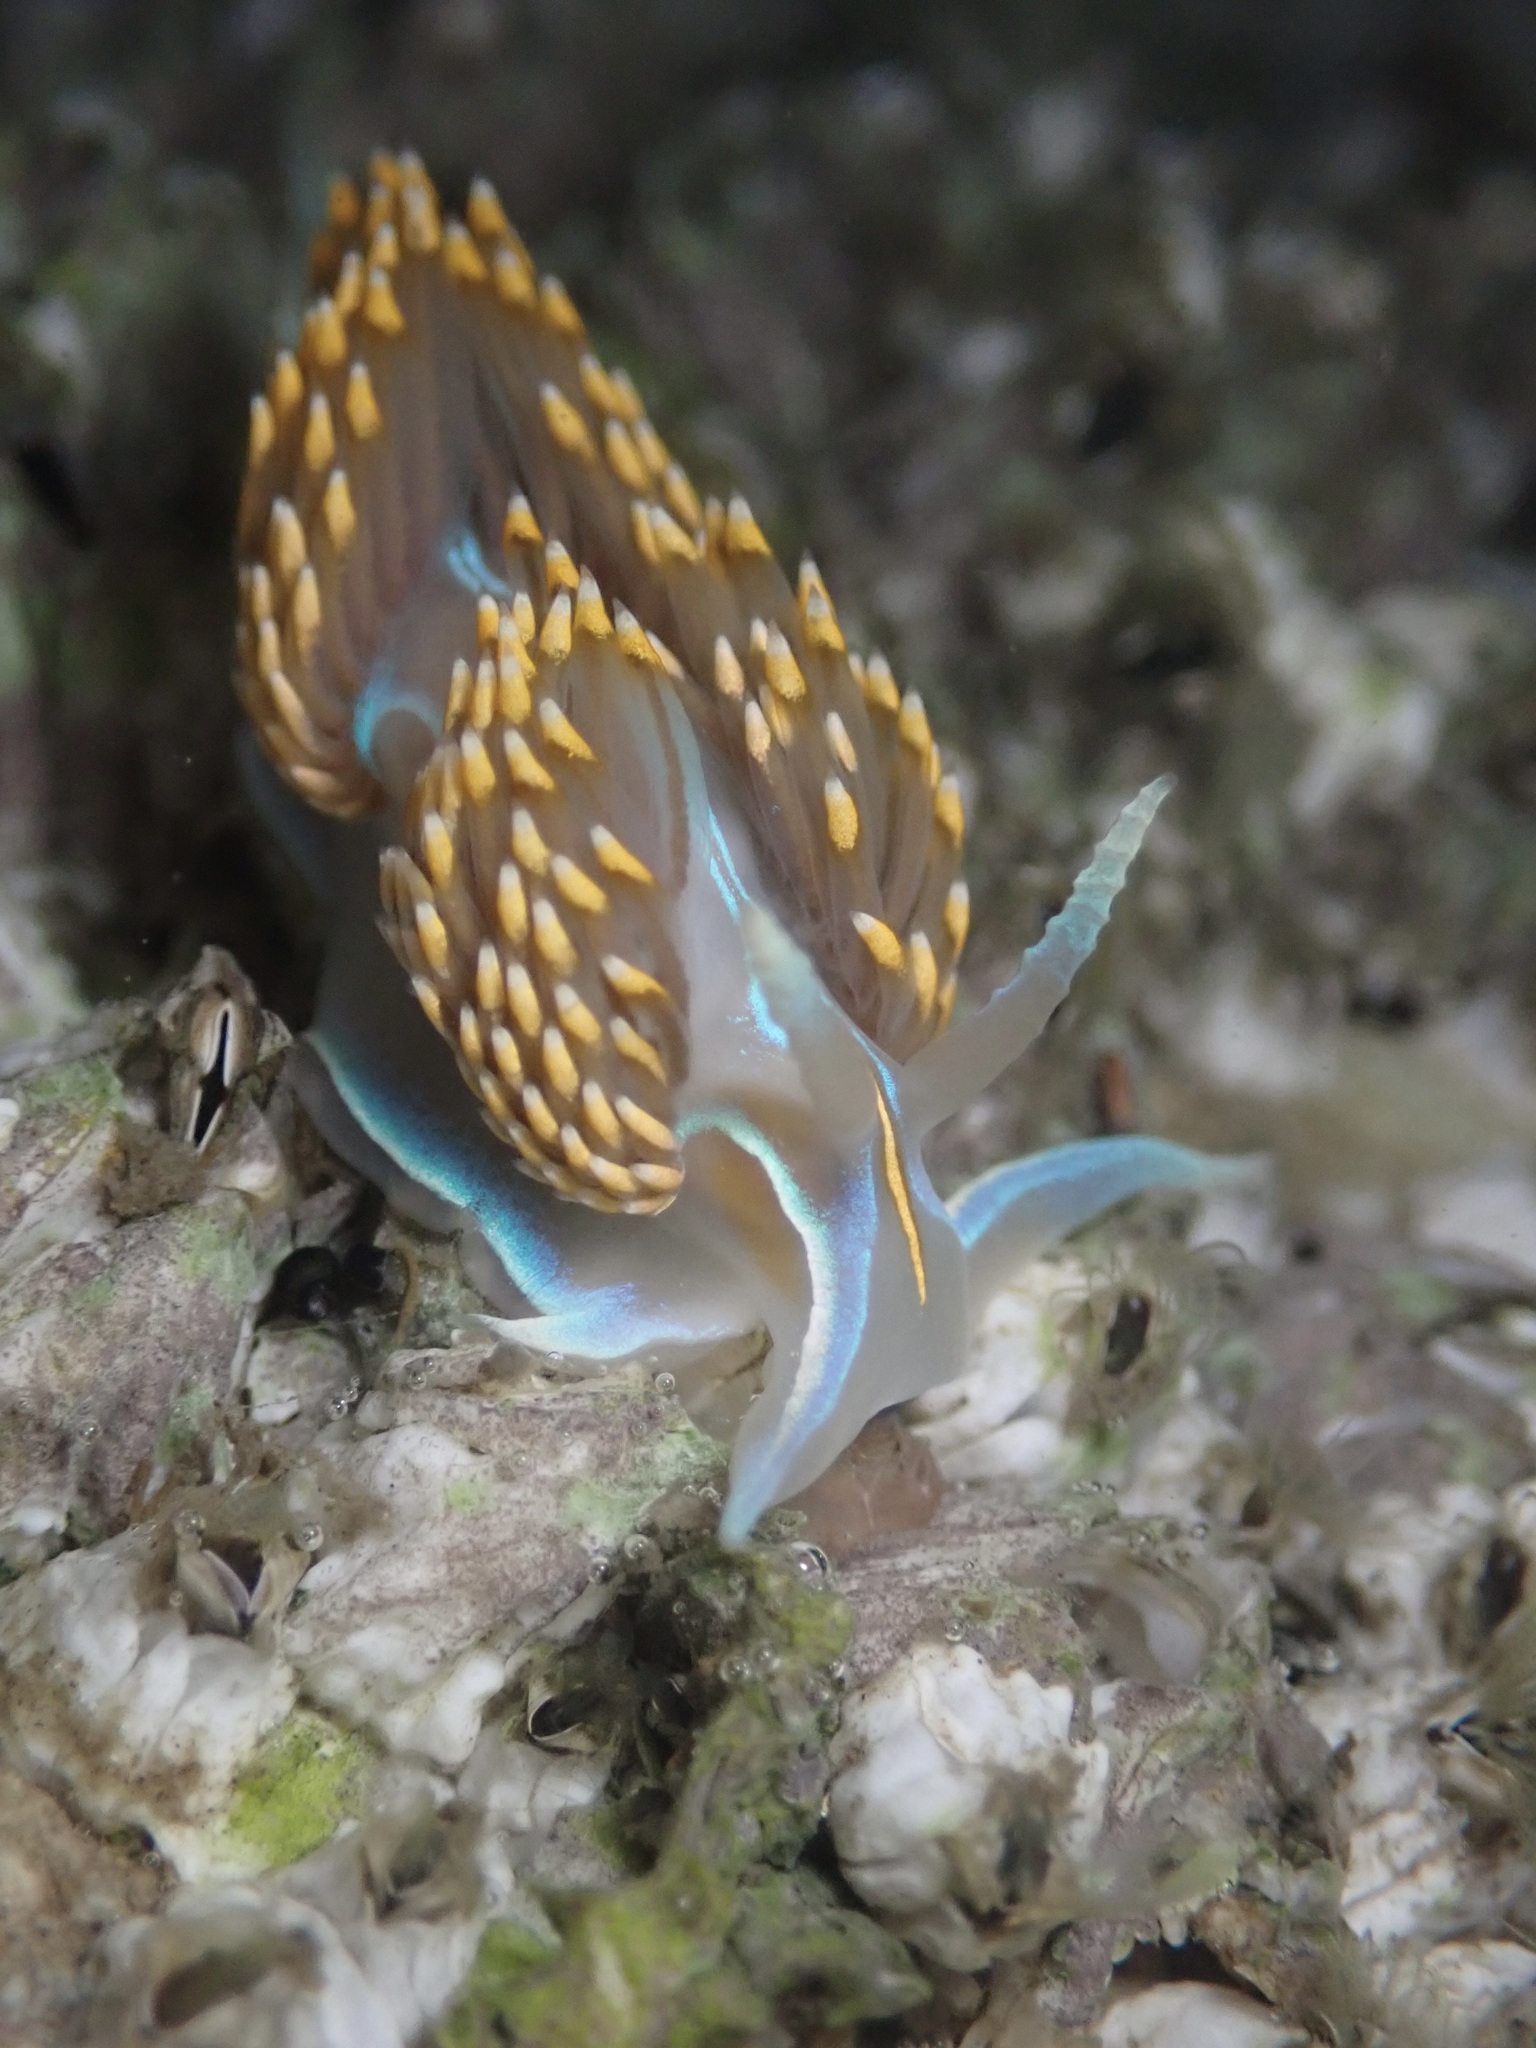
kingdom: Animalia
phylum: Mollusca
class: Gastropoda
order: Nudibranchia
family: Myrrhinidae
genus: Hermissenda
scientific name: Hermissenda opalescens
